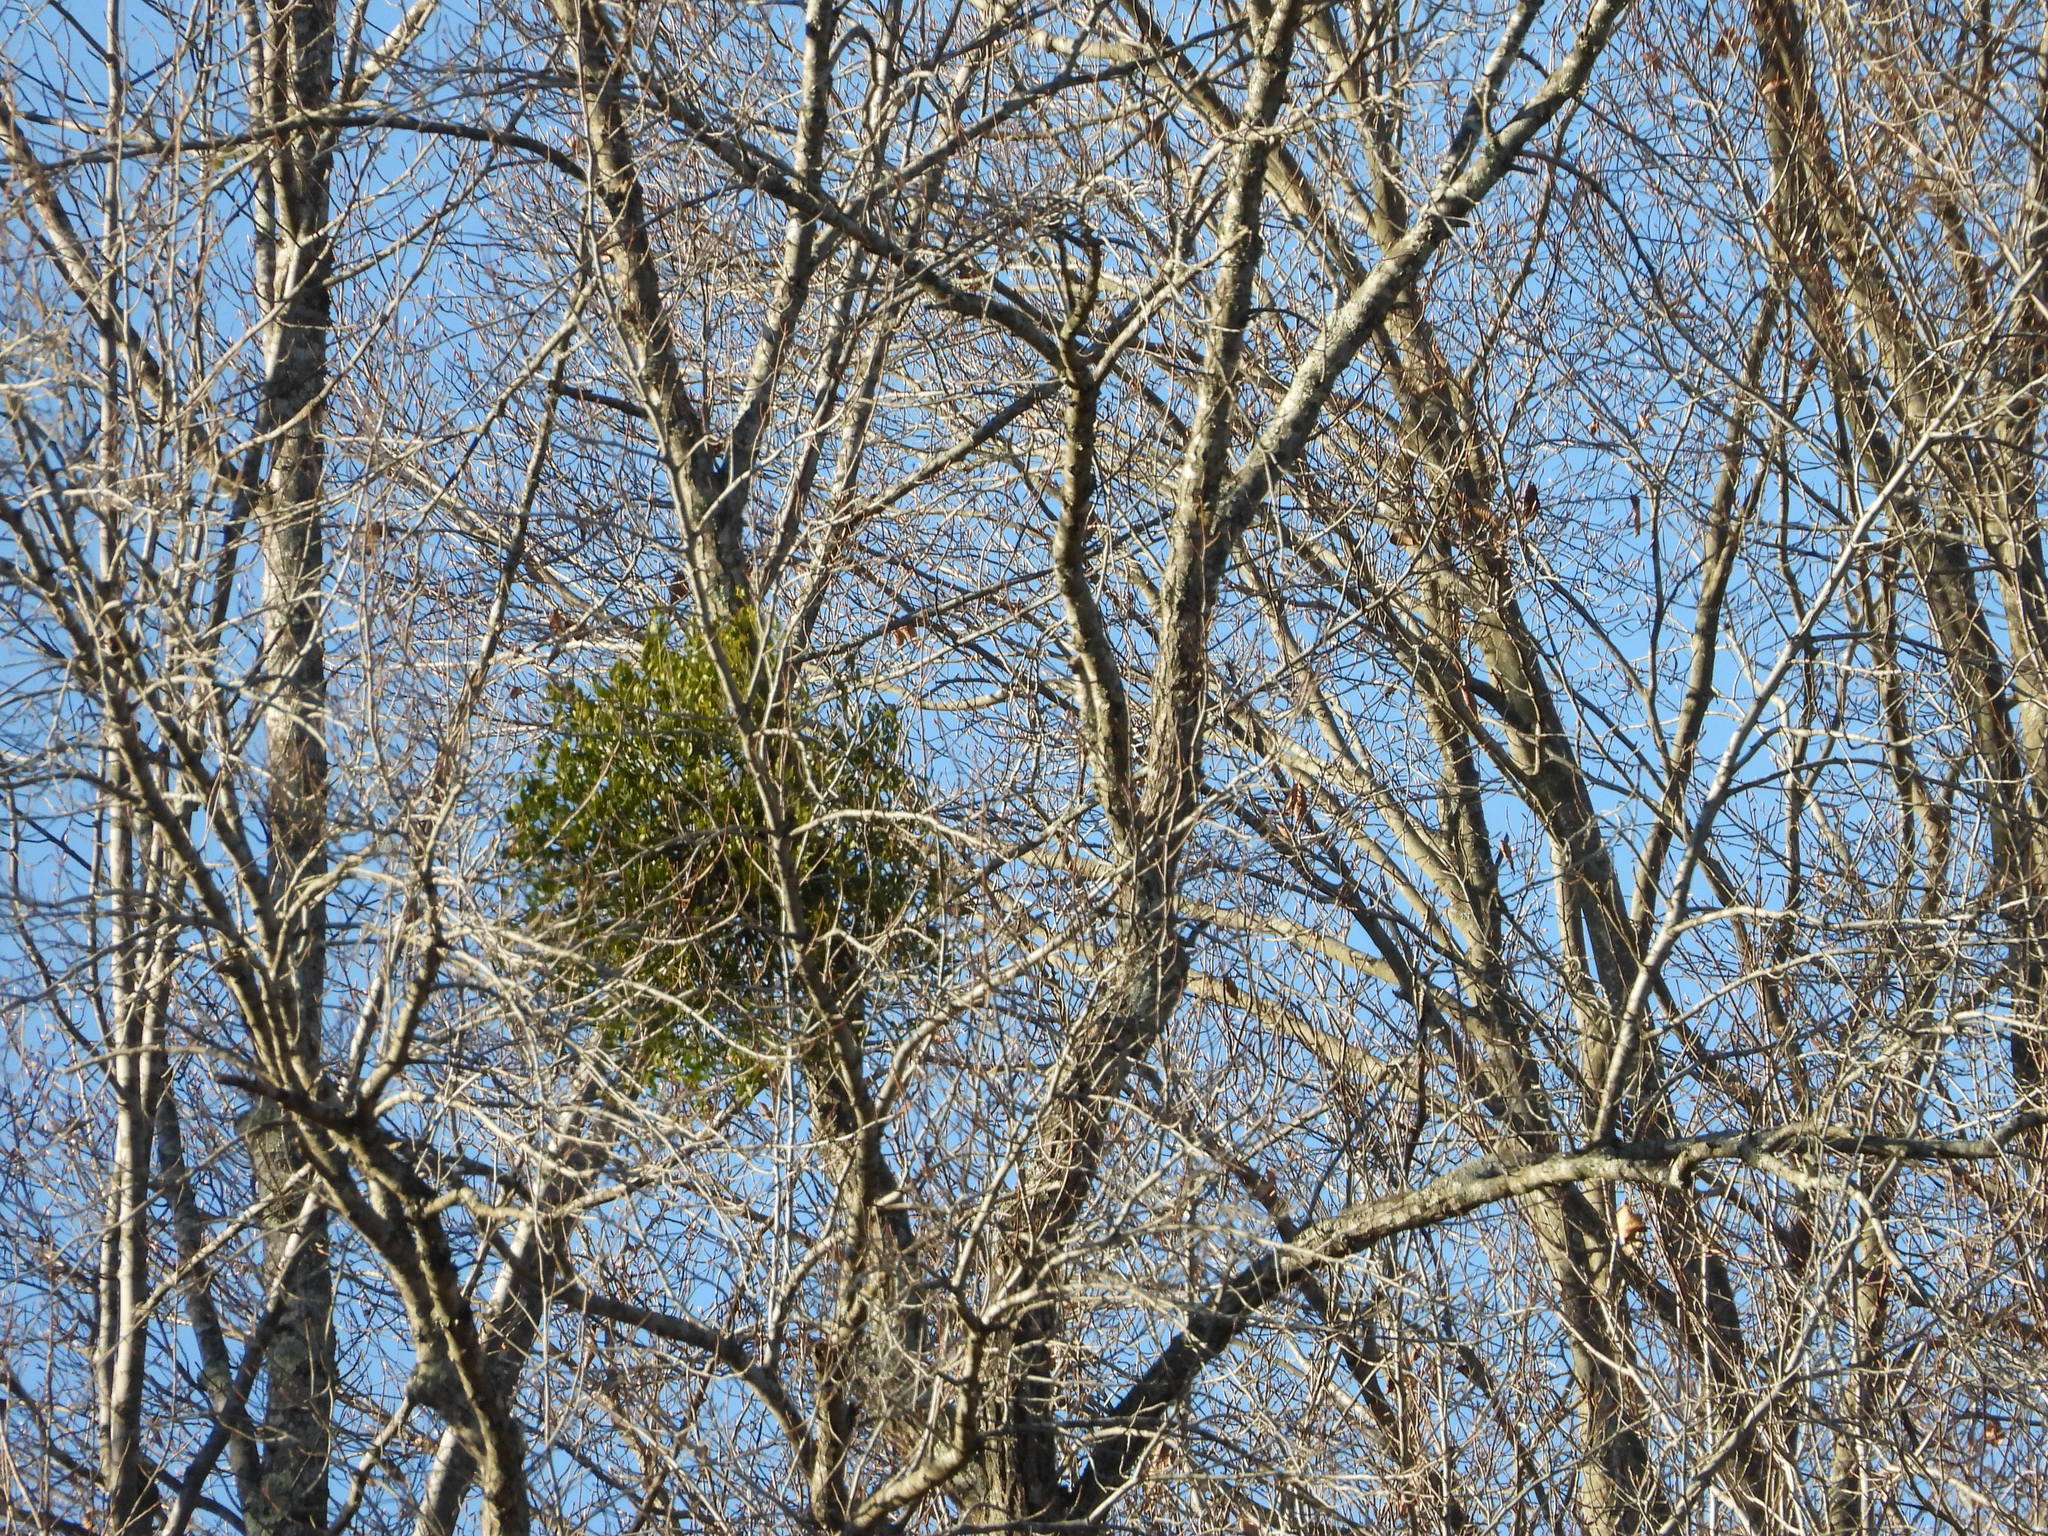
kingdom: Plantae
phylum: Tracheophyta
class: Magnoliopsida
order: Santalales
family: Viscaceae
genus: Phoradendron
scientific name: Phoradendron leucarpum
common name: Pacific mistletoe
